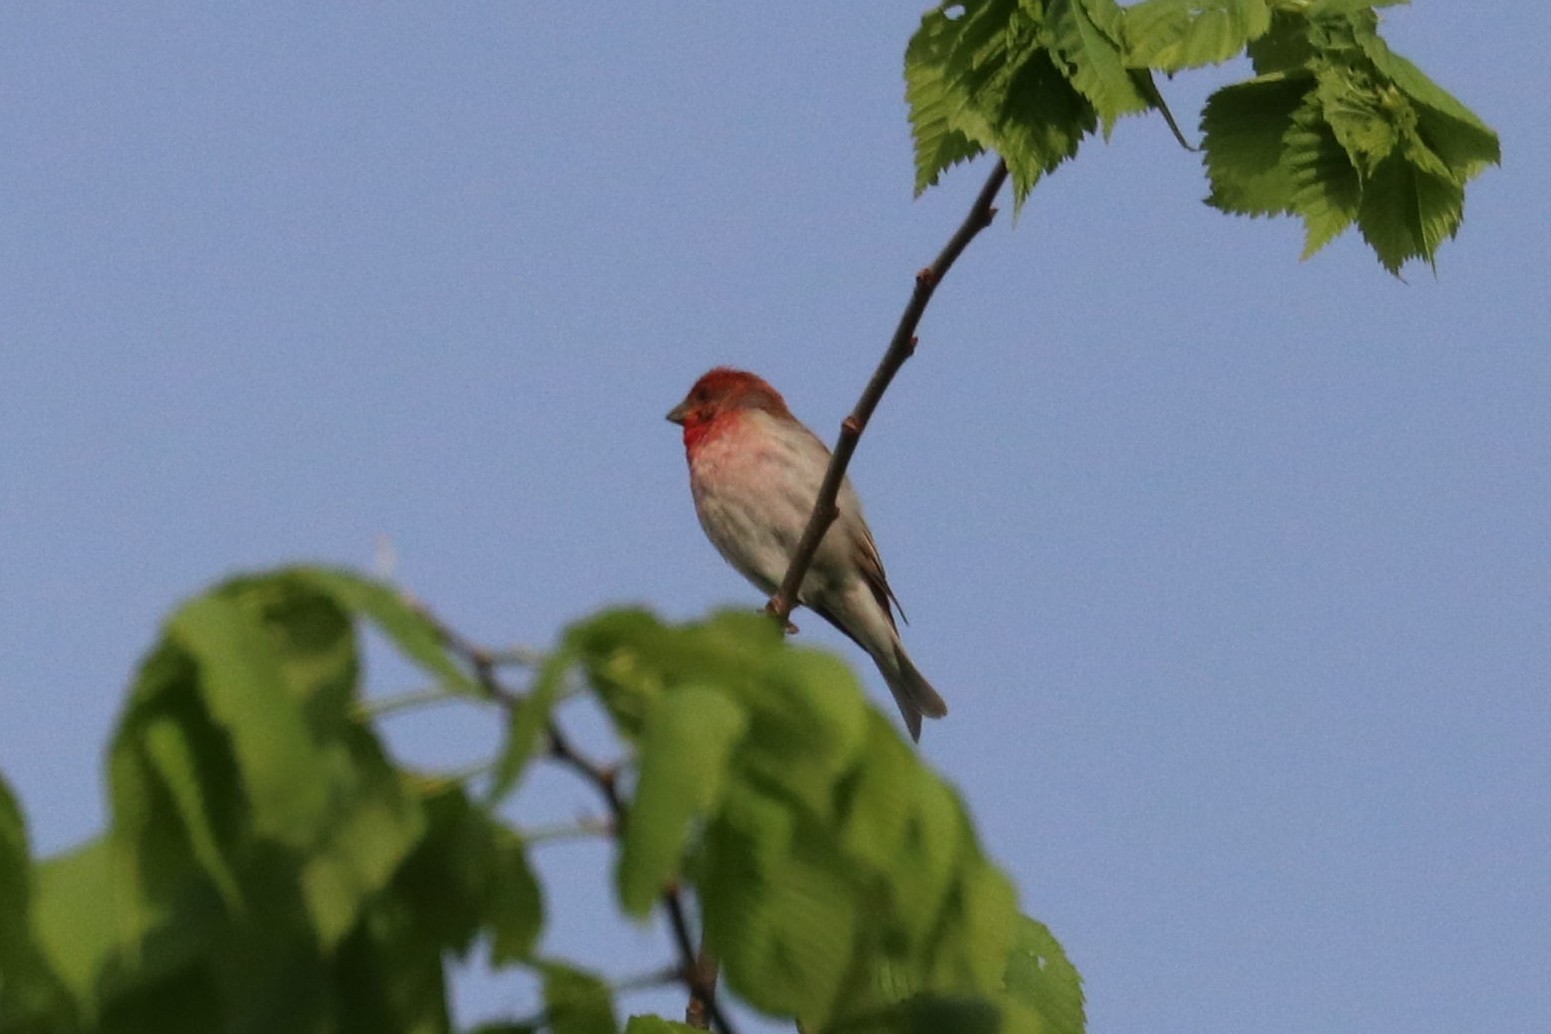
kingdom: Animalia
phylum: Chordata
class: Aves
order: Passeriformes
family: Fringillidae
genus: Carpodacus
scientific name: Carpodacus erythrinus
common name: Common rosefinch
